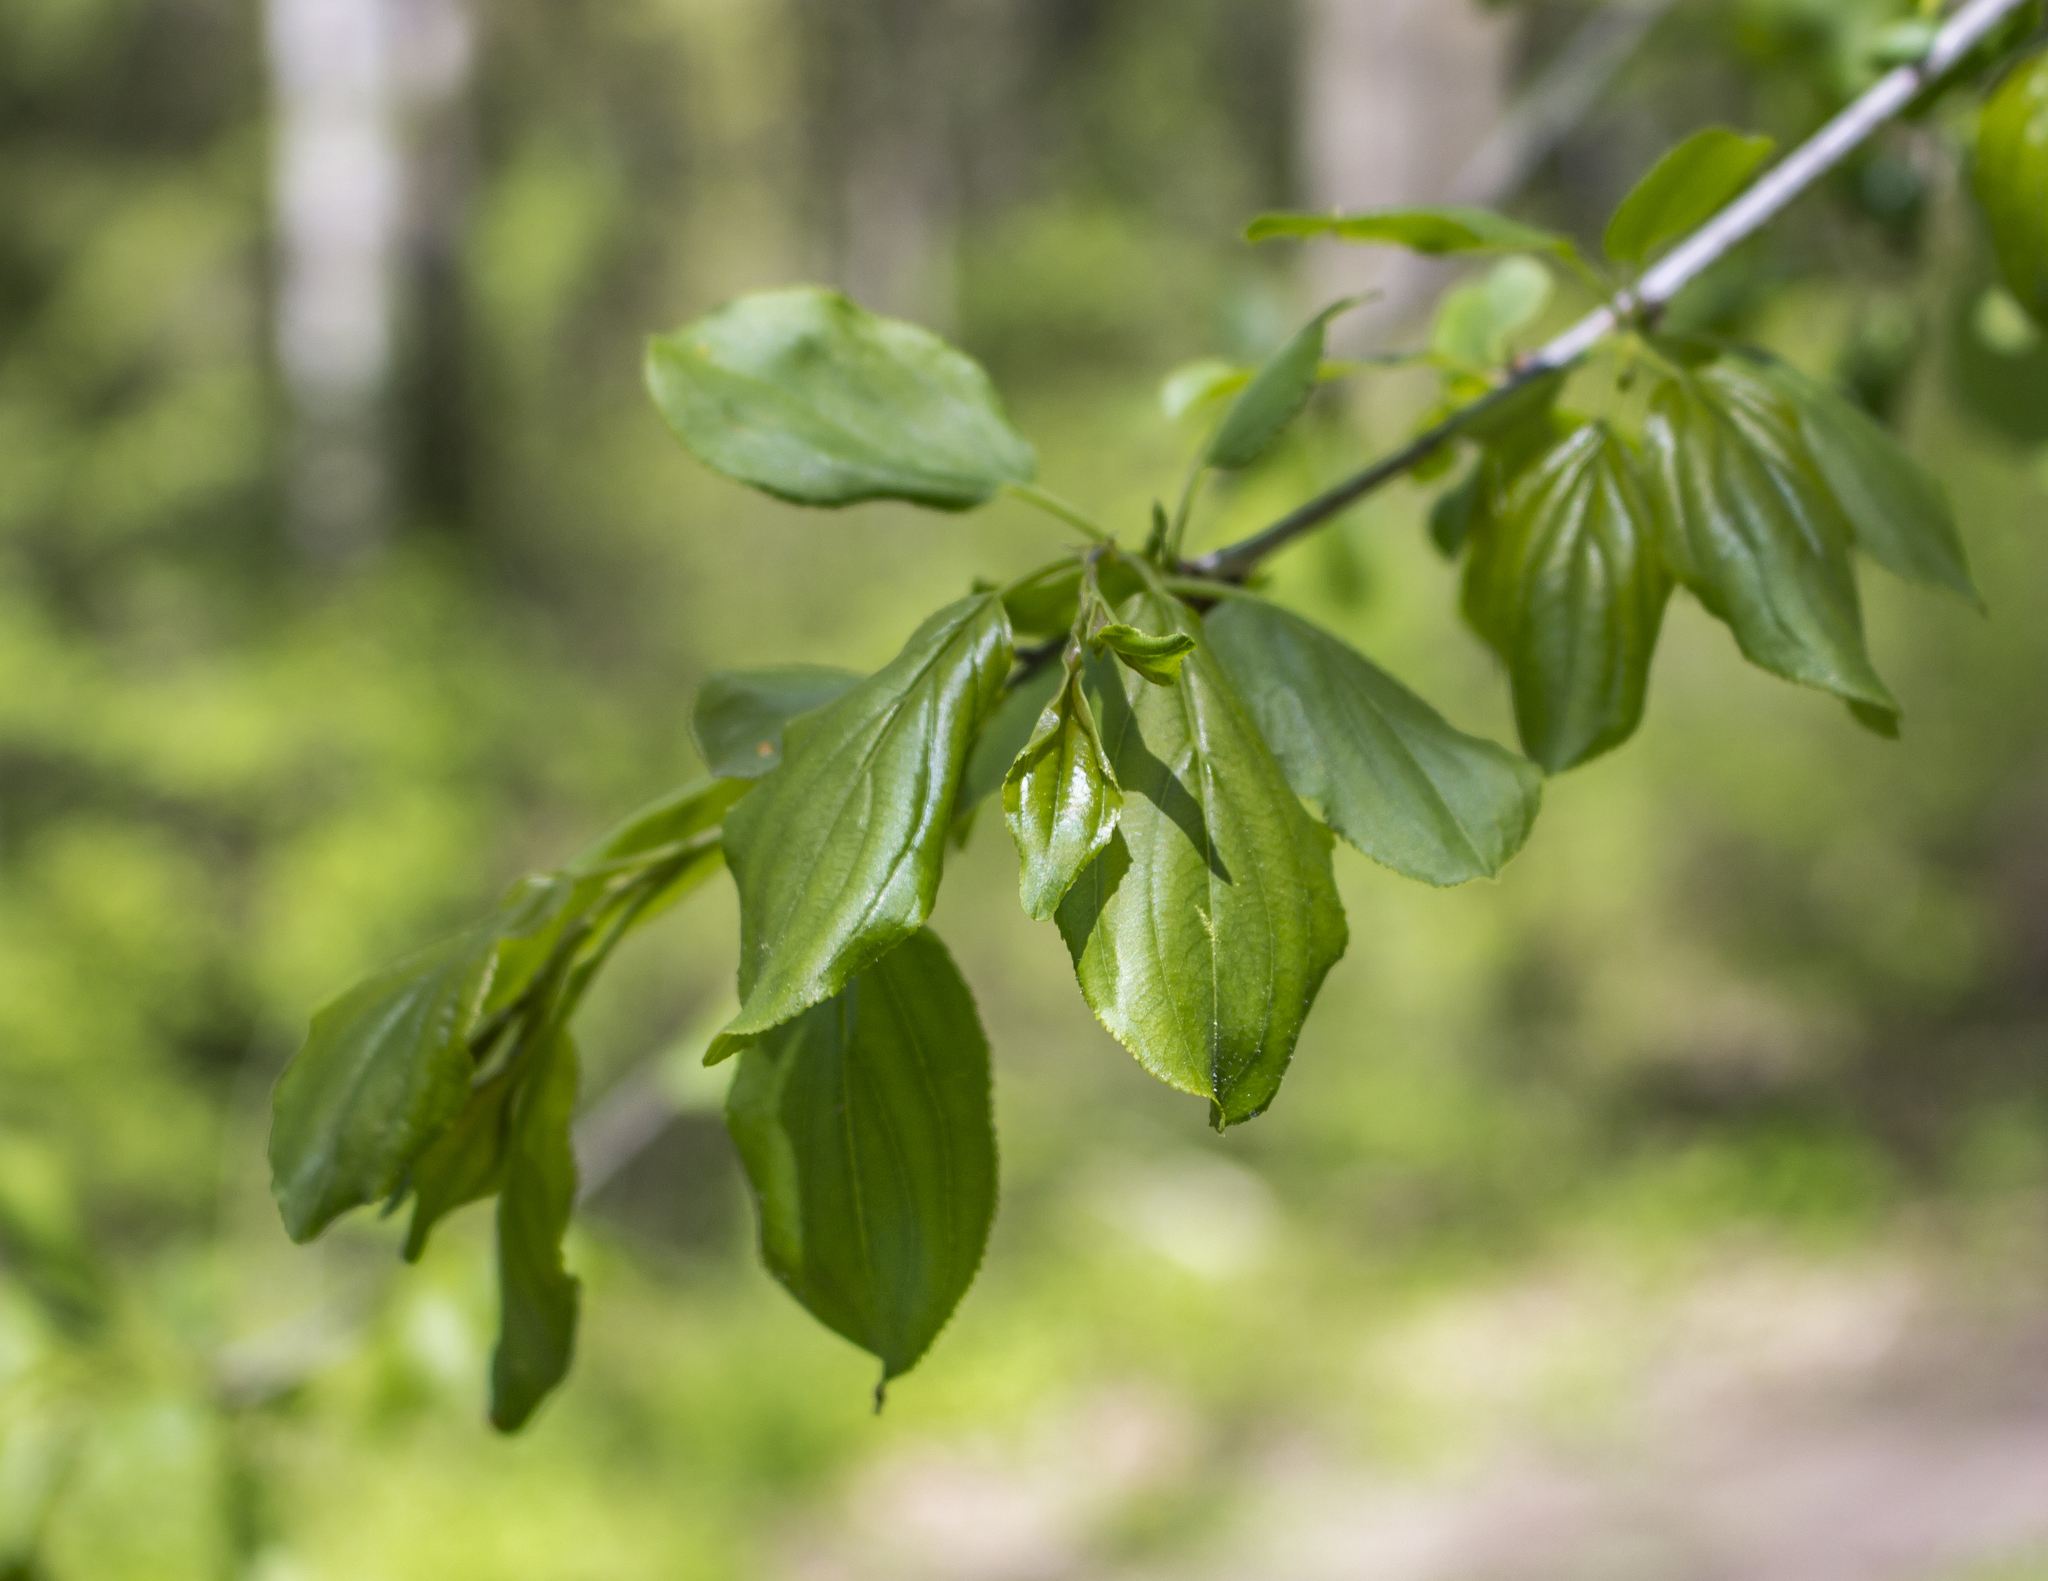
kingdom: Plantae
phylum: Tracheophyta
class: Magnoliopsida
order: Rosales
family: Rhamnaceae
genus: Rhamnus
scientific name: Rhamnus cathartica
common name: Common buckthorn
